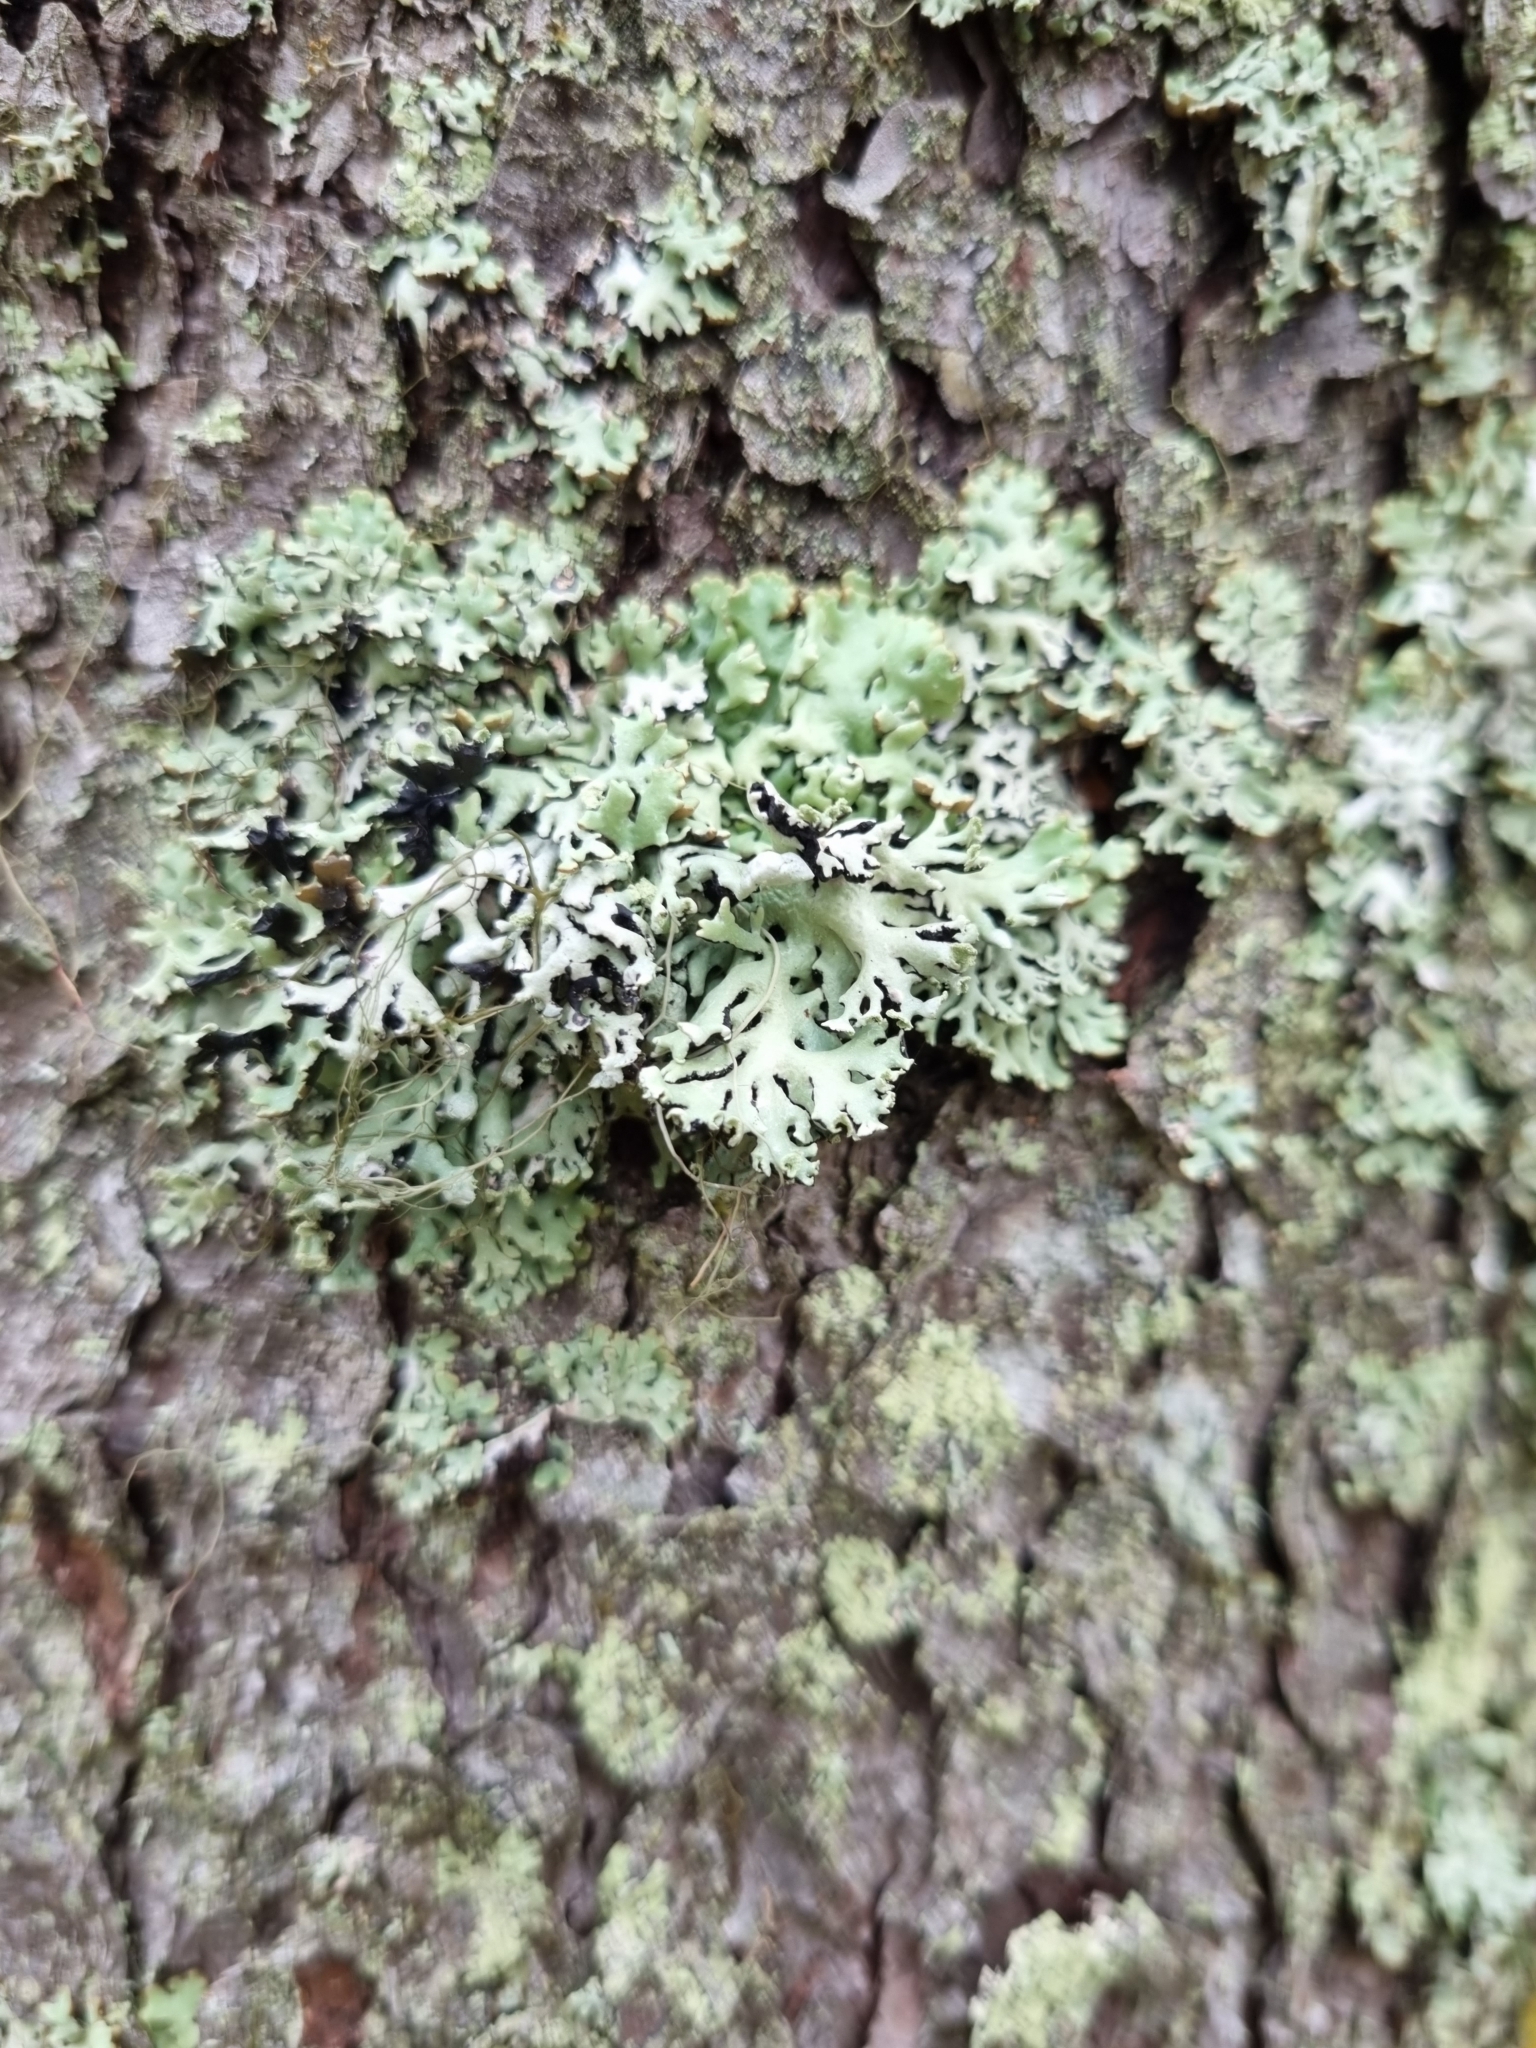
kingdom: Fungi
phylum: Ascomycota
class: Lecanoromycetes
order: Lecanorales
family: Parmeliaceae
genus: Hypogymnia
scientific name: Hypogymnia physodes
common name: Dark crottle
